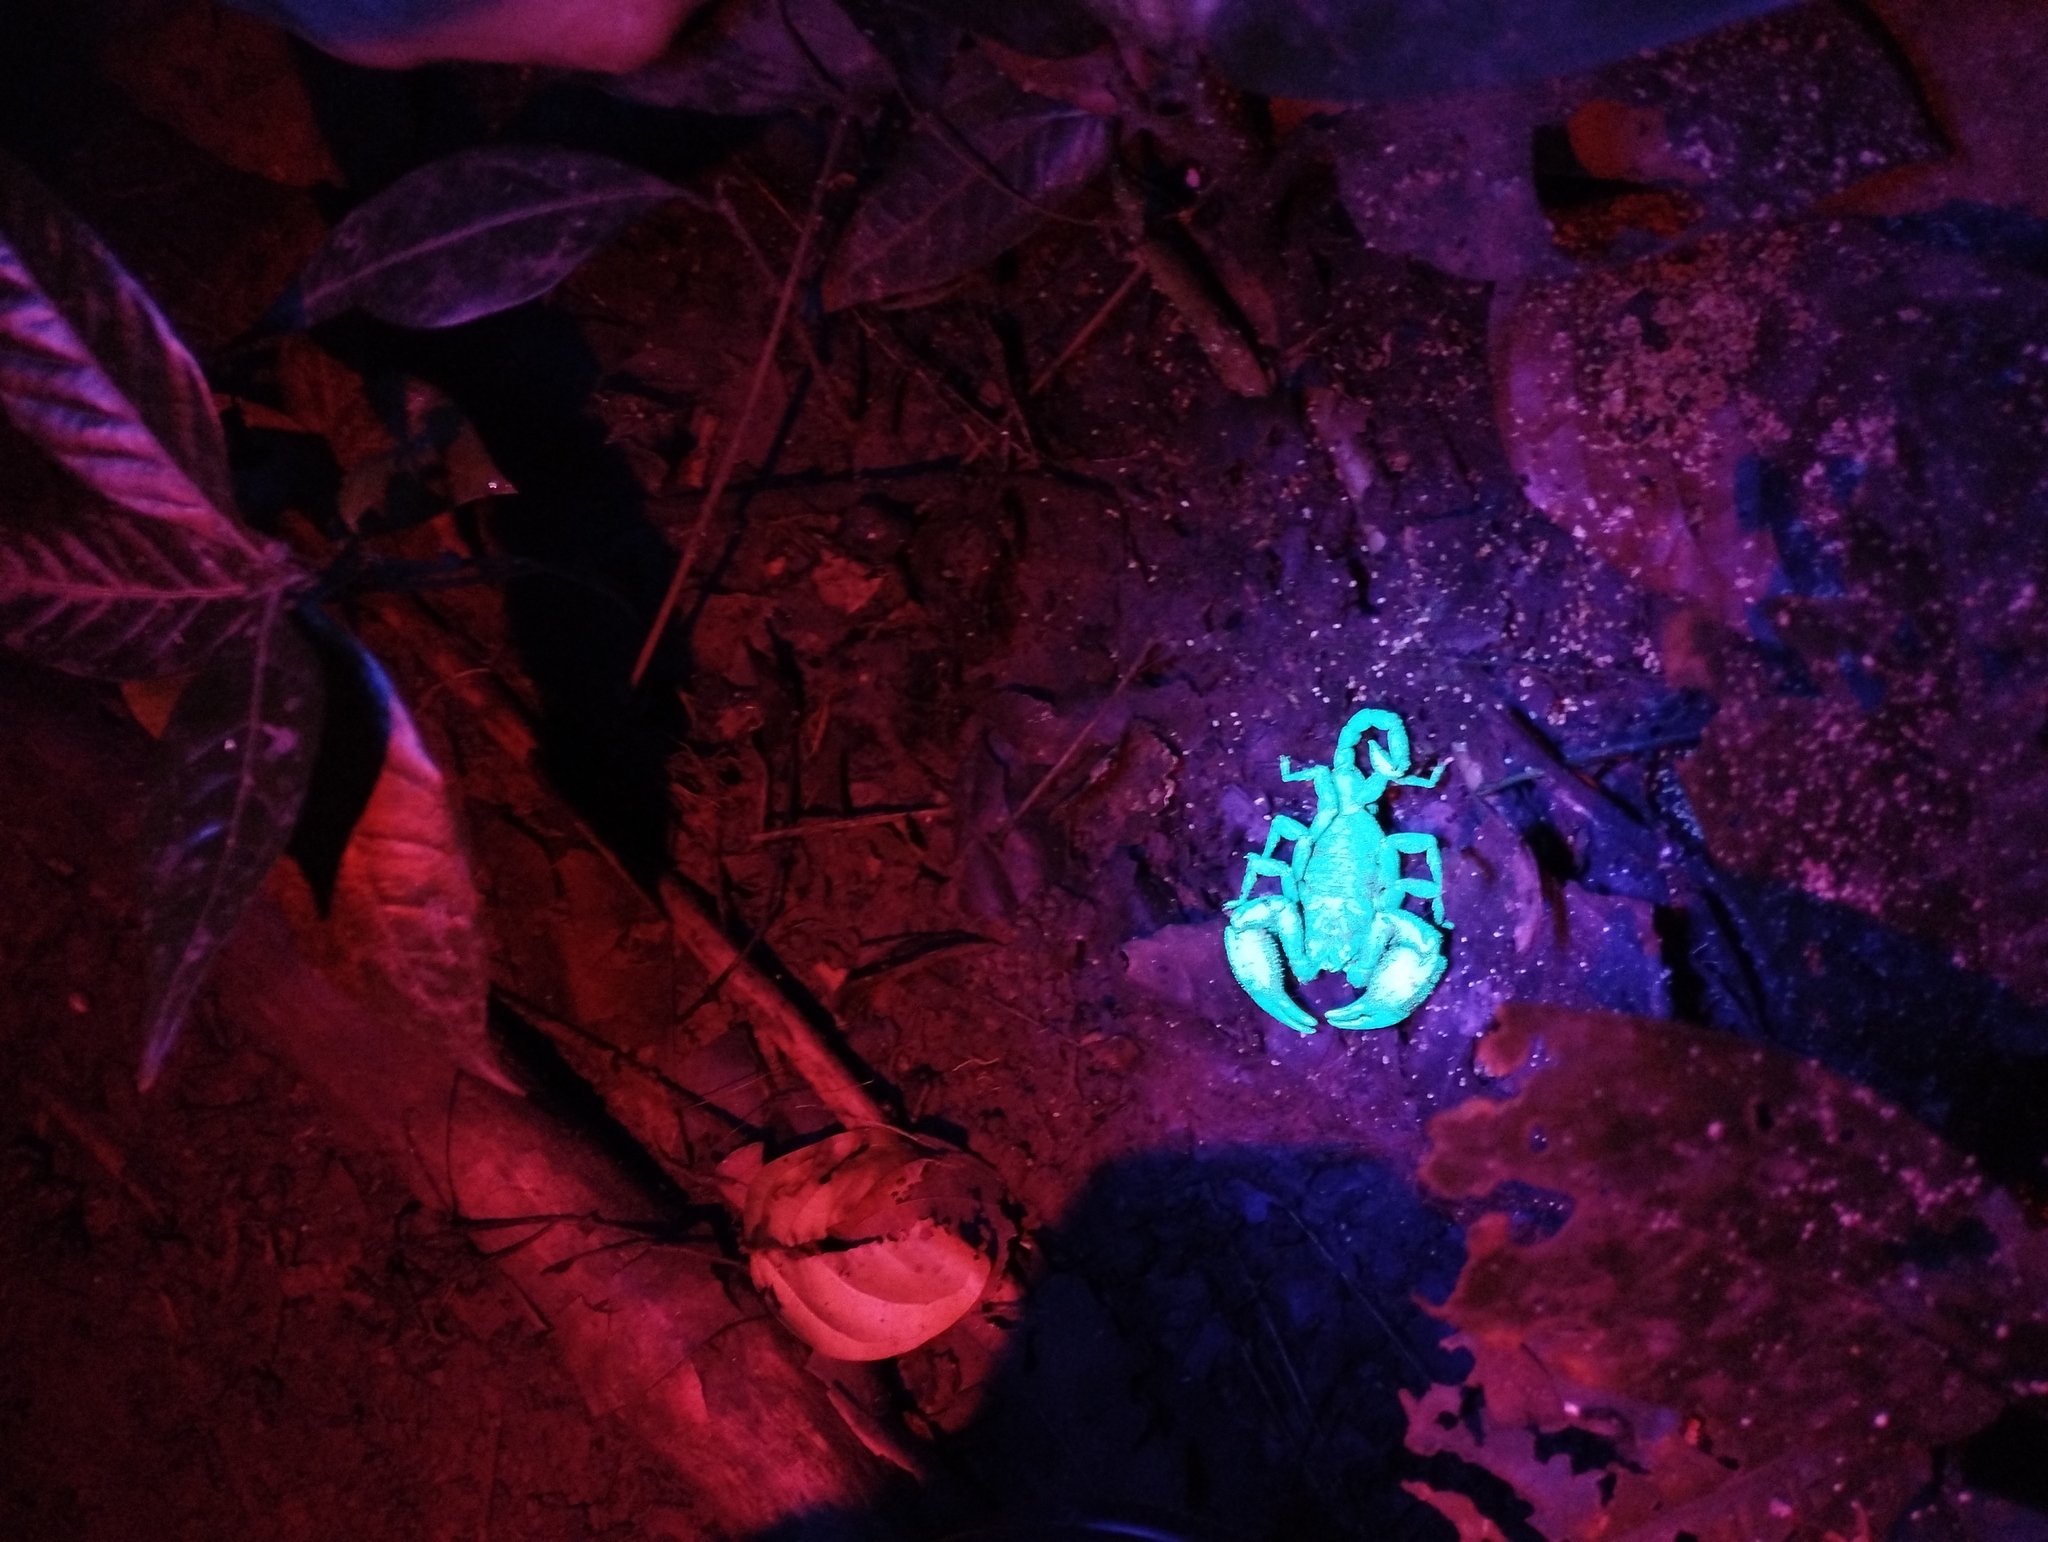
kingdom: Animalia
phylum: Arthropoda
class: Arachnida
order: Scorpiones
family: Hormuridae
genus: Opisthacanthus
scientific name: Opisthacanthus elatus
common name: Scorpions
